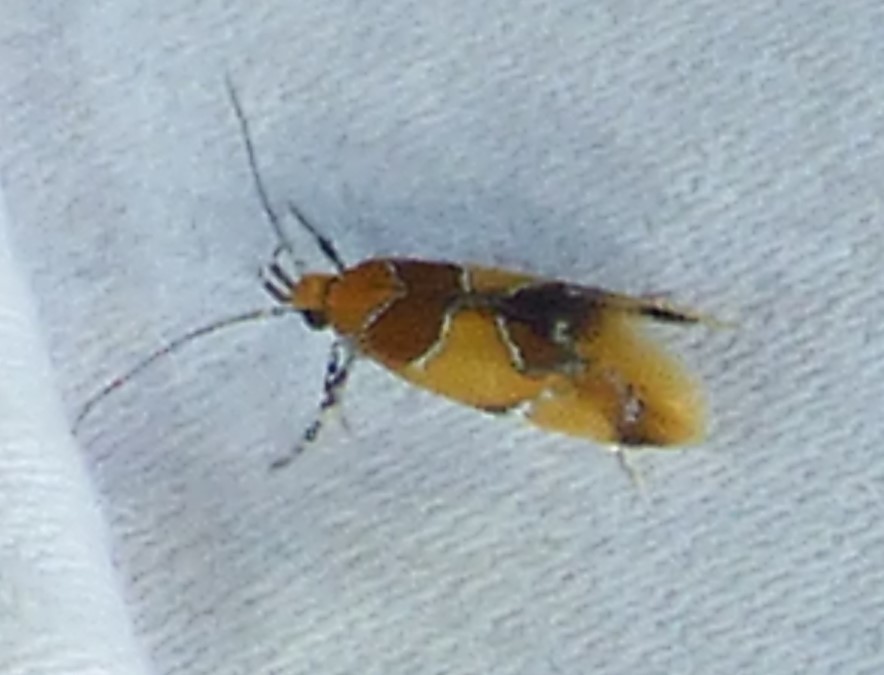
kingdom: Animalia
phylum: Arthropoda
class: Insecta
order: Lepidoptera
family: Oecophoridae
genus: Callima
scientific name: Callima argenticinctella
